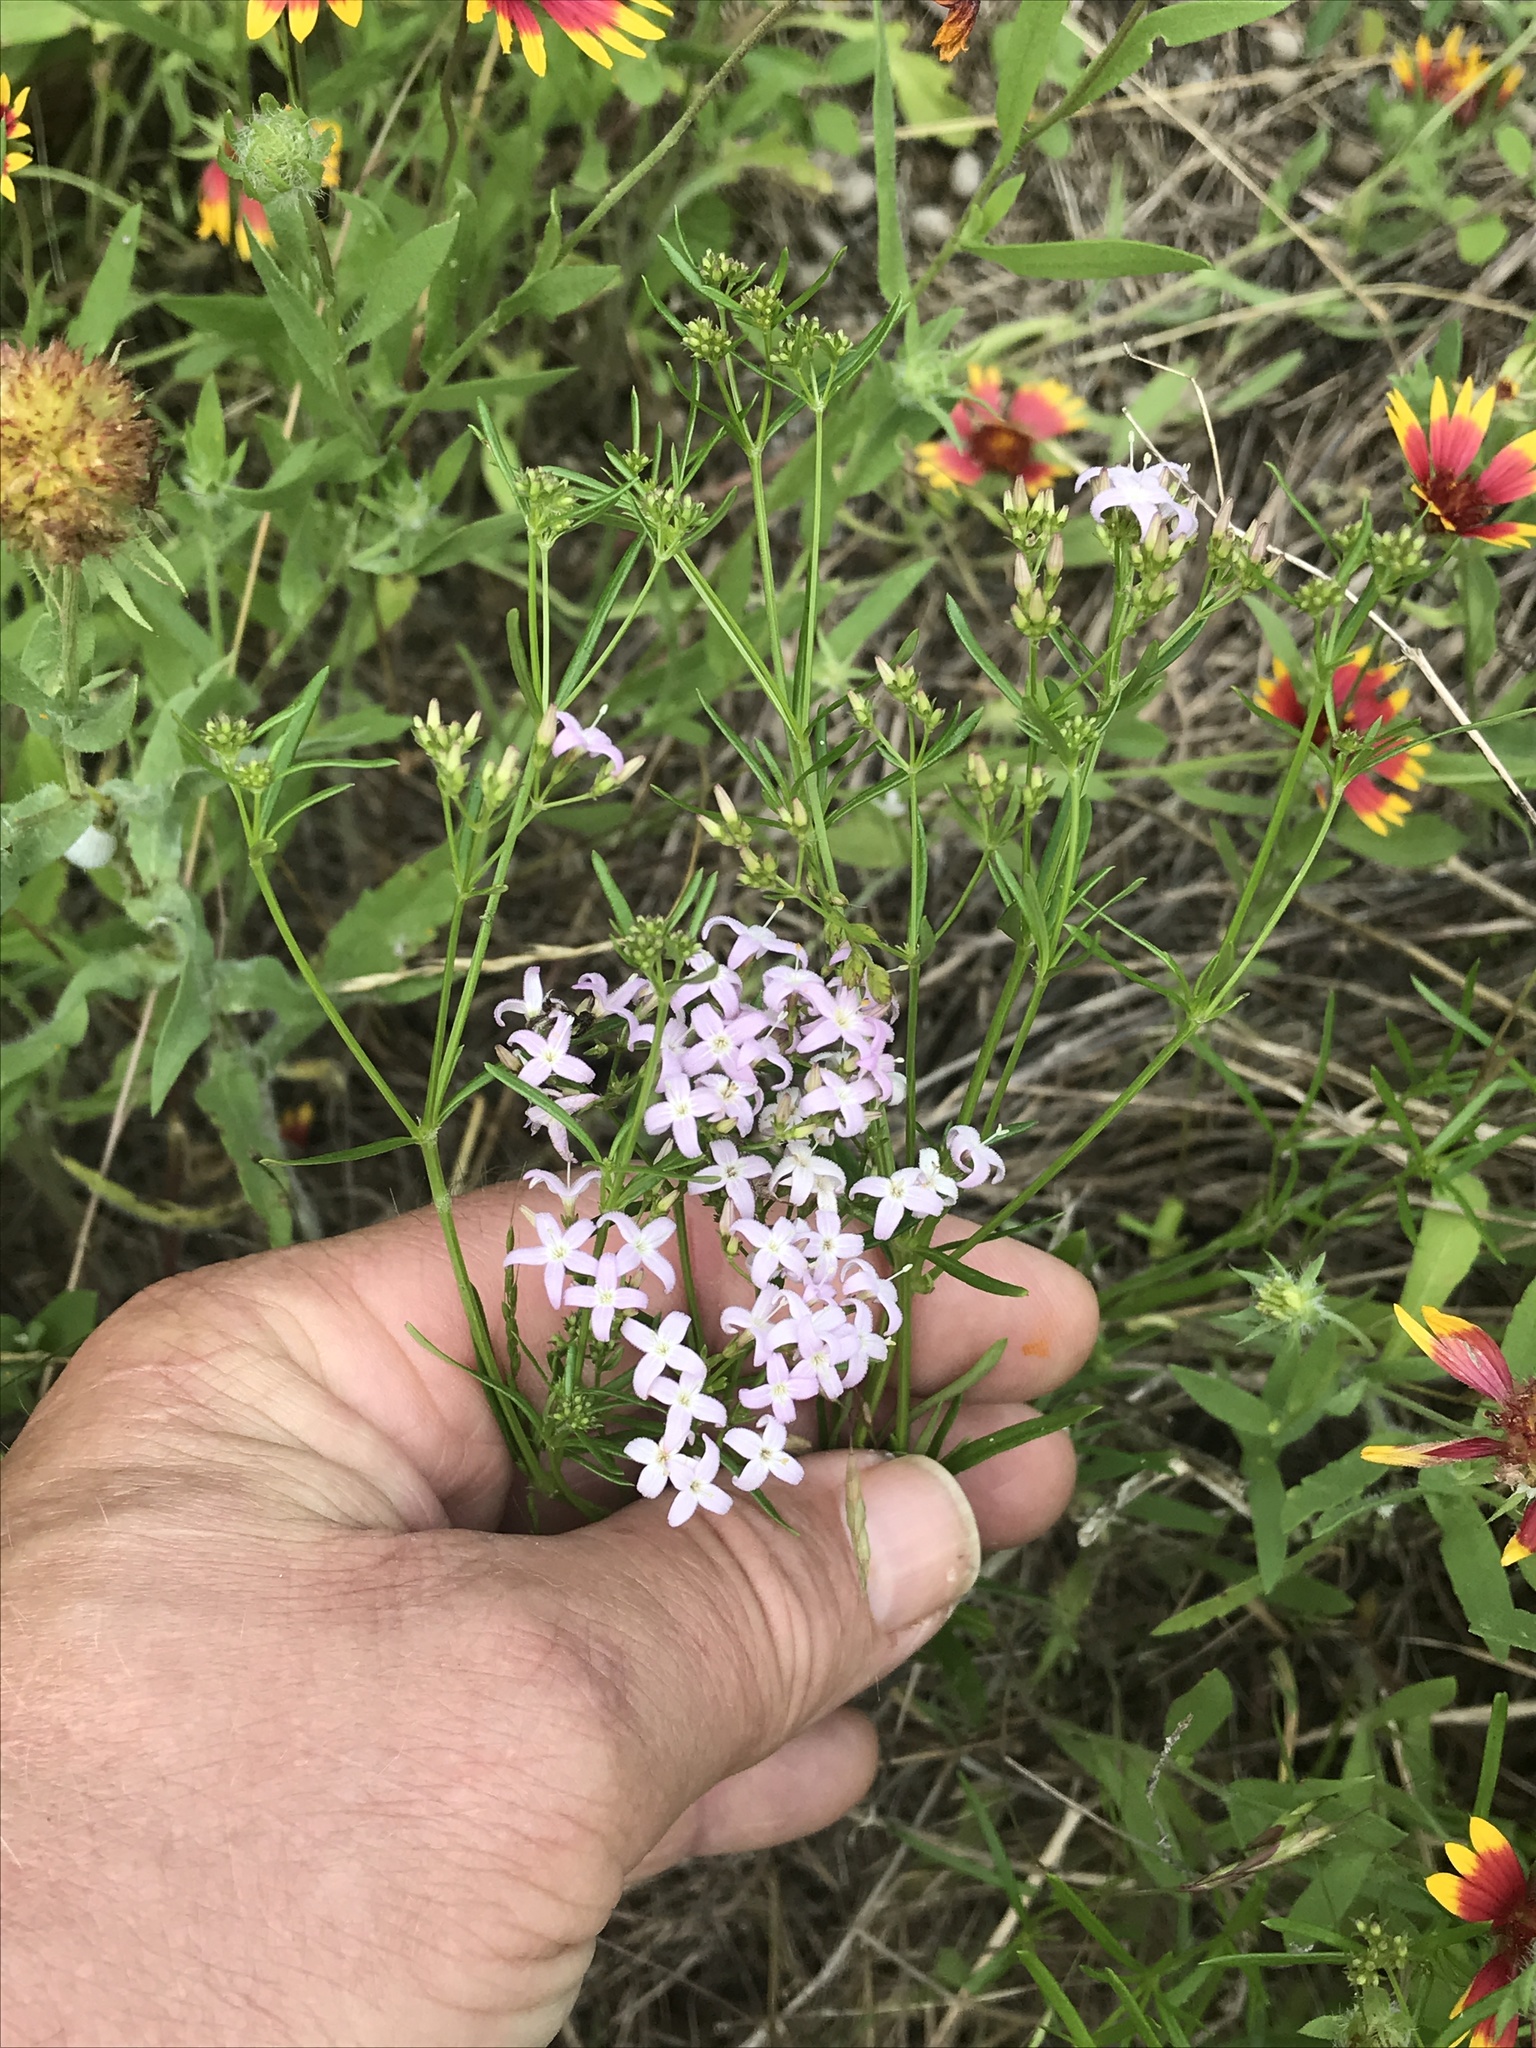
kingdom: Plantae
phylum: Tracheophyta
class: Magnoliopsida
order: Gentianales
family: Rubiaceae
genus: Stenaria
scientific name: Stenaria nigricans
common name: Diamondflowers
